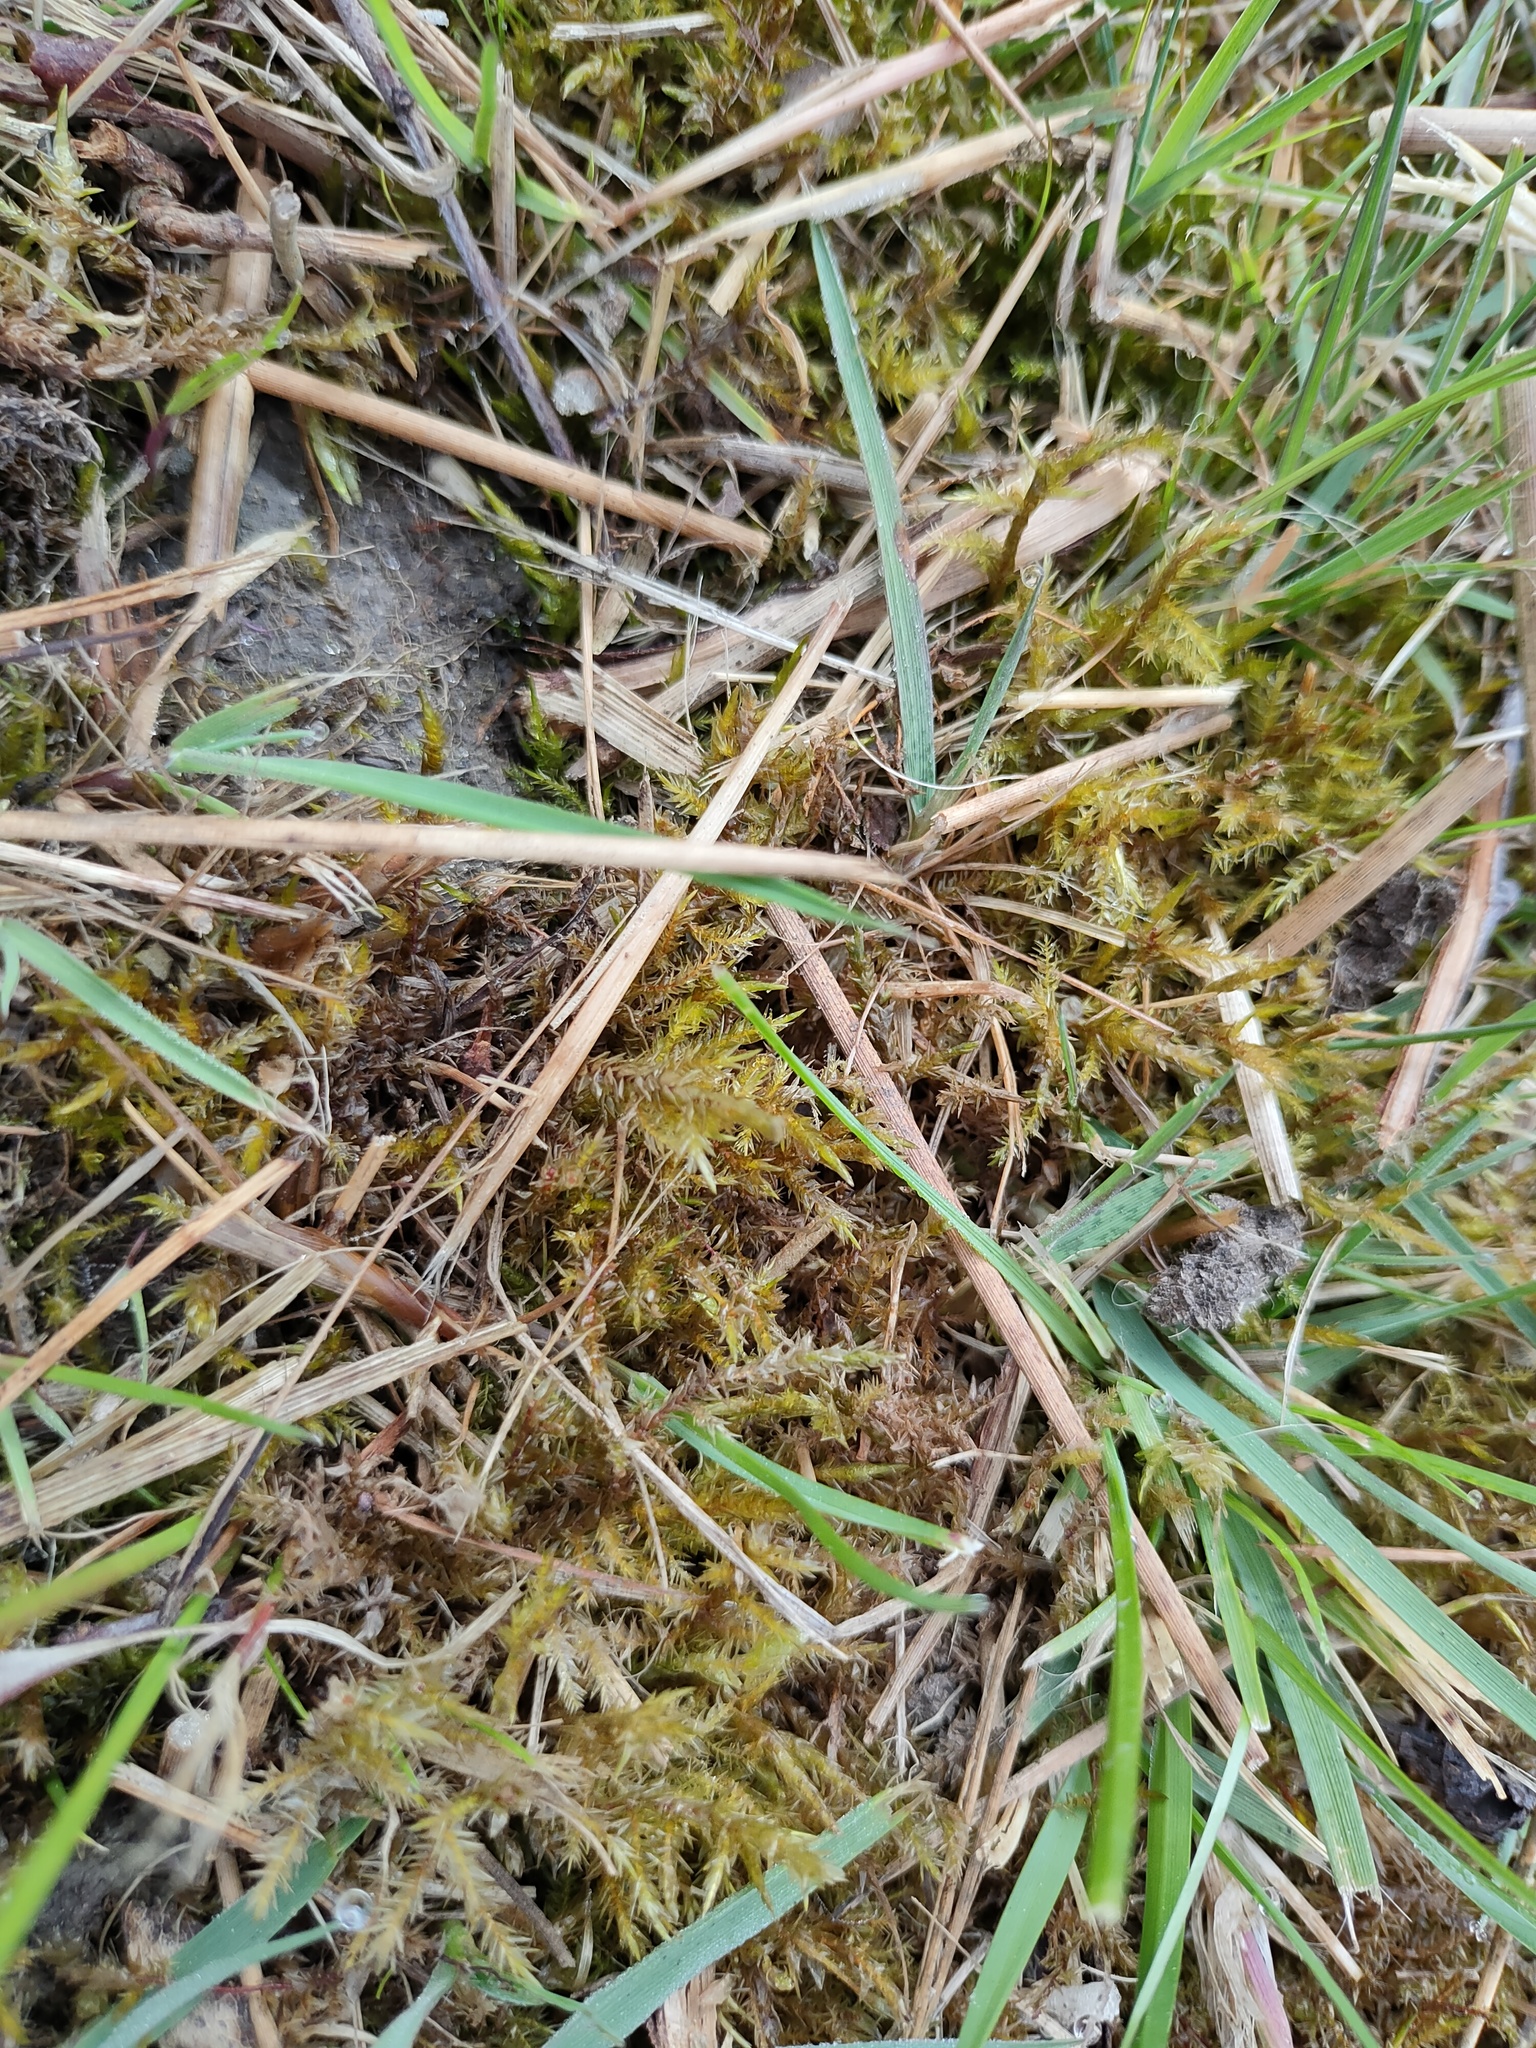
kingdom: Plantae
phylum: Bryophyta
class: Bryopsida
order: Hypnales
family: Pylaisiaceae
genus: Calliergonella
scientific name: Calliergonella cuspidata
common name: Common large wetland moss
